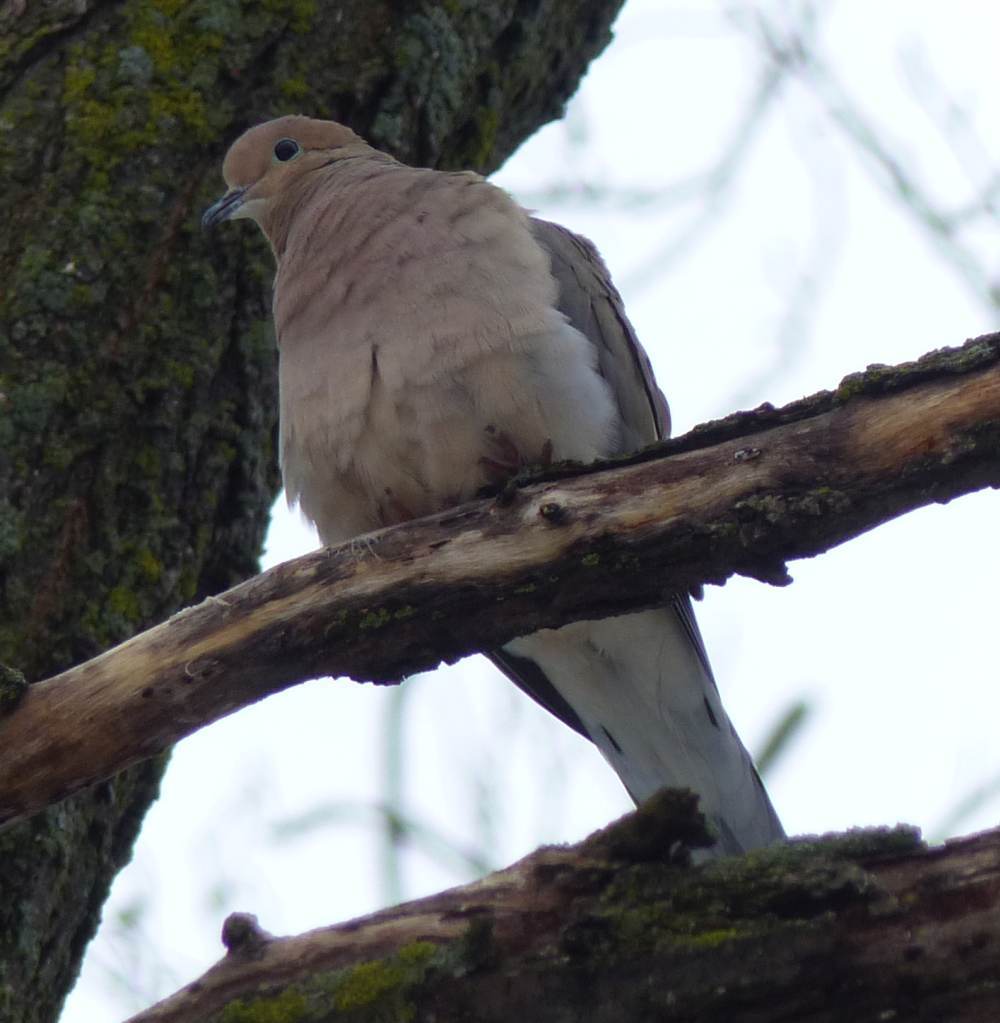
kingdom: Animalia
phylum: Chordata
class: Aves
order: Columbiformes
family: Columbidae
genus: Zenaida
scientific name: Zenaida macroura
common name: Mourning dove
